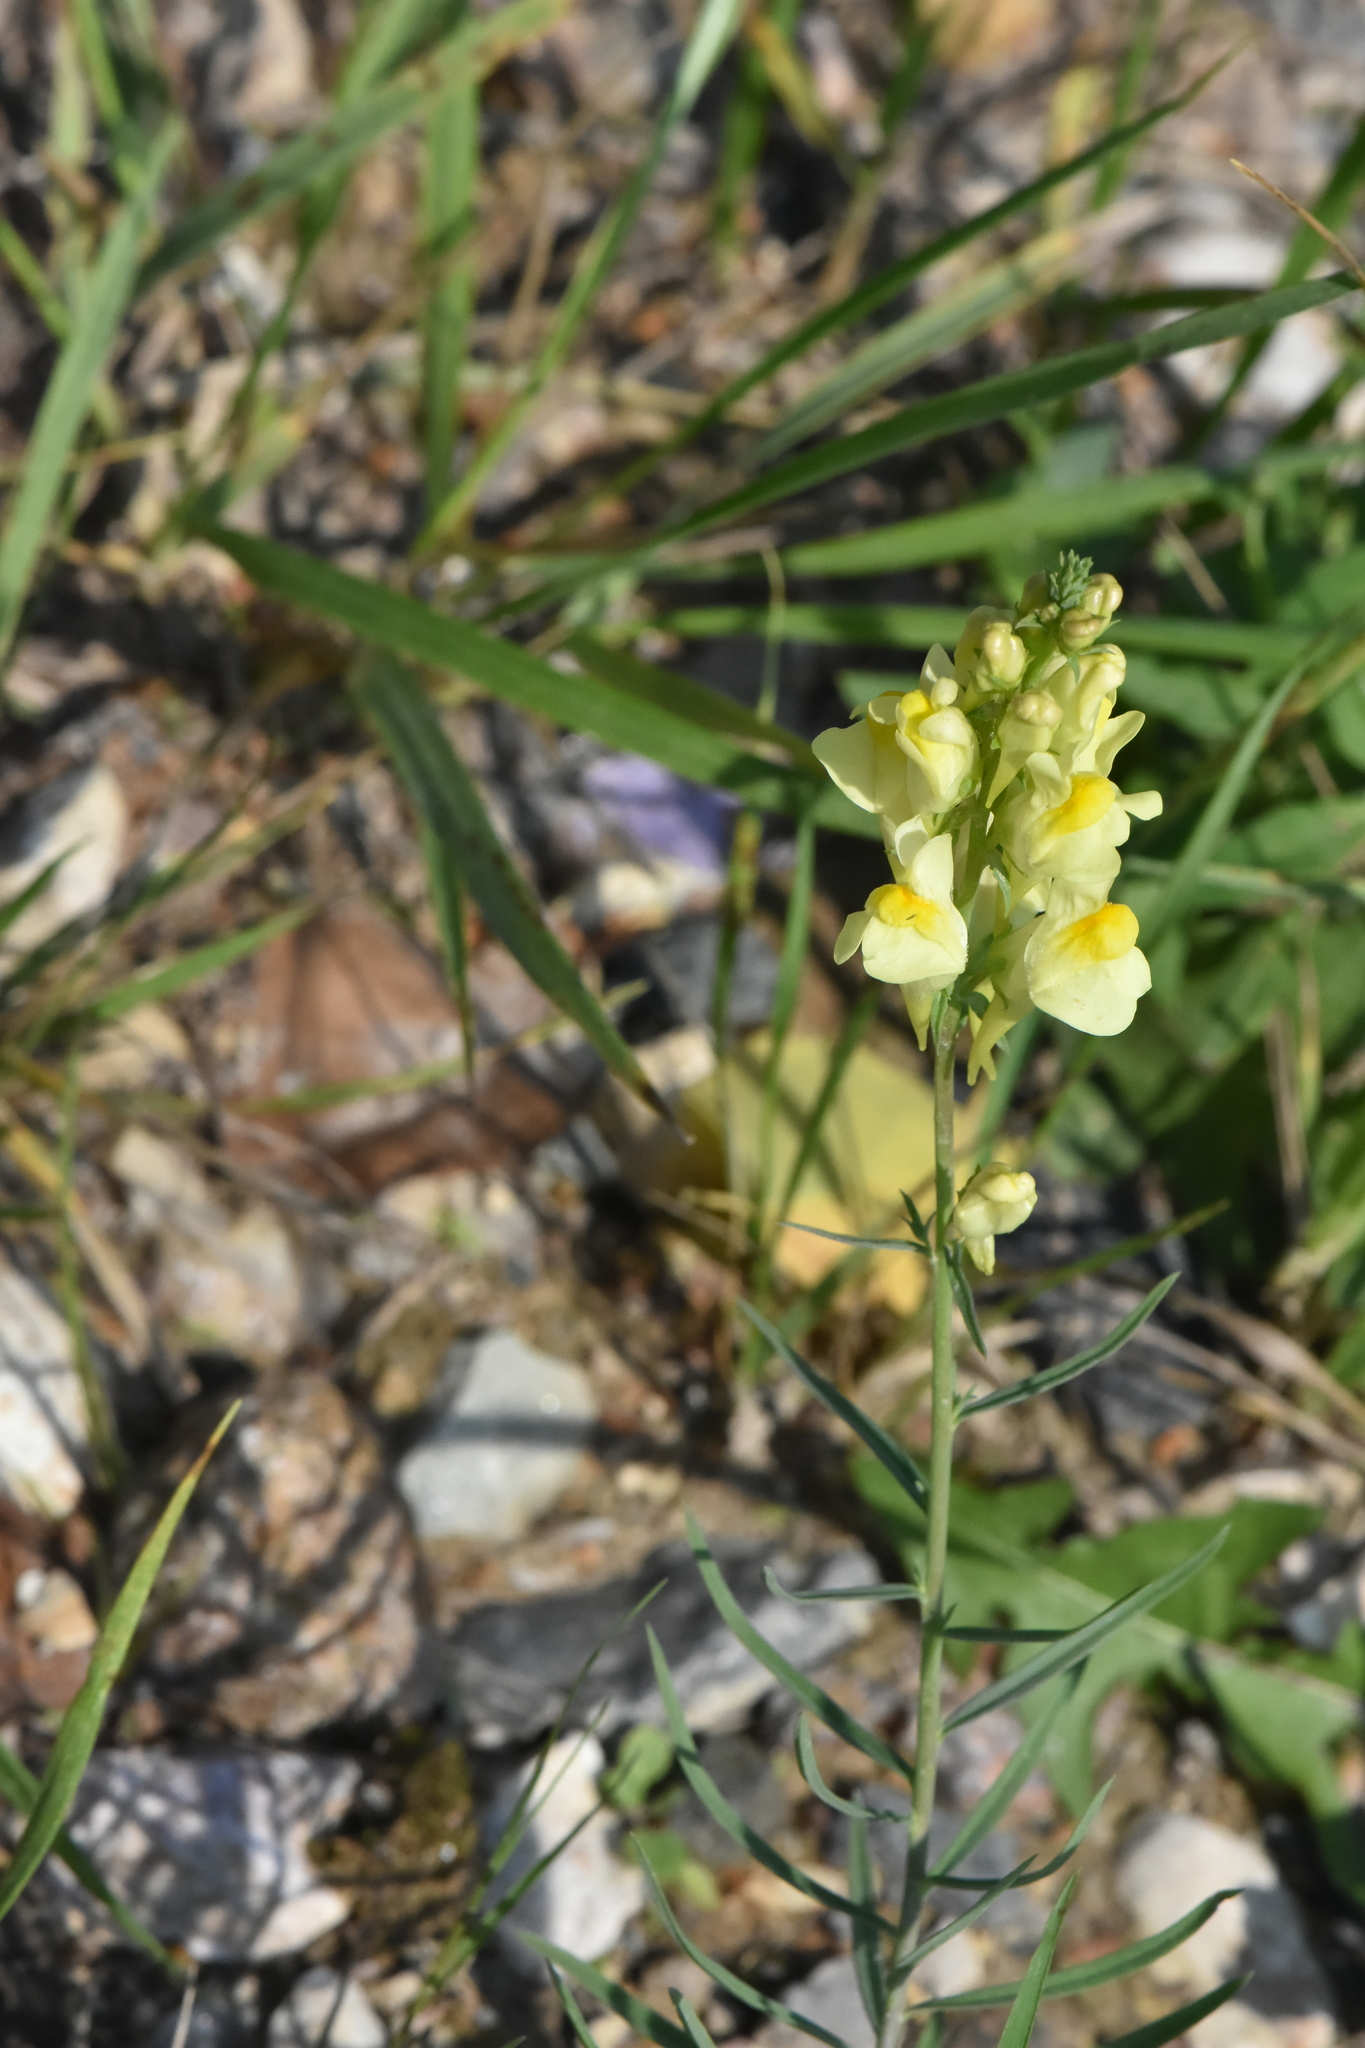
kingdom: Plantae
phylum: Tracheophyta
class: Magnoliopsida
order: Lamiales
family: Plantaginaceae
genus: Linaria
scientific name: Linaria vulgaris
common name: Butter and eggs
